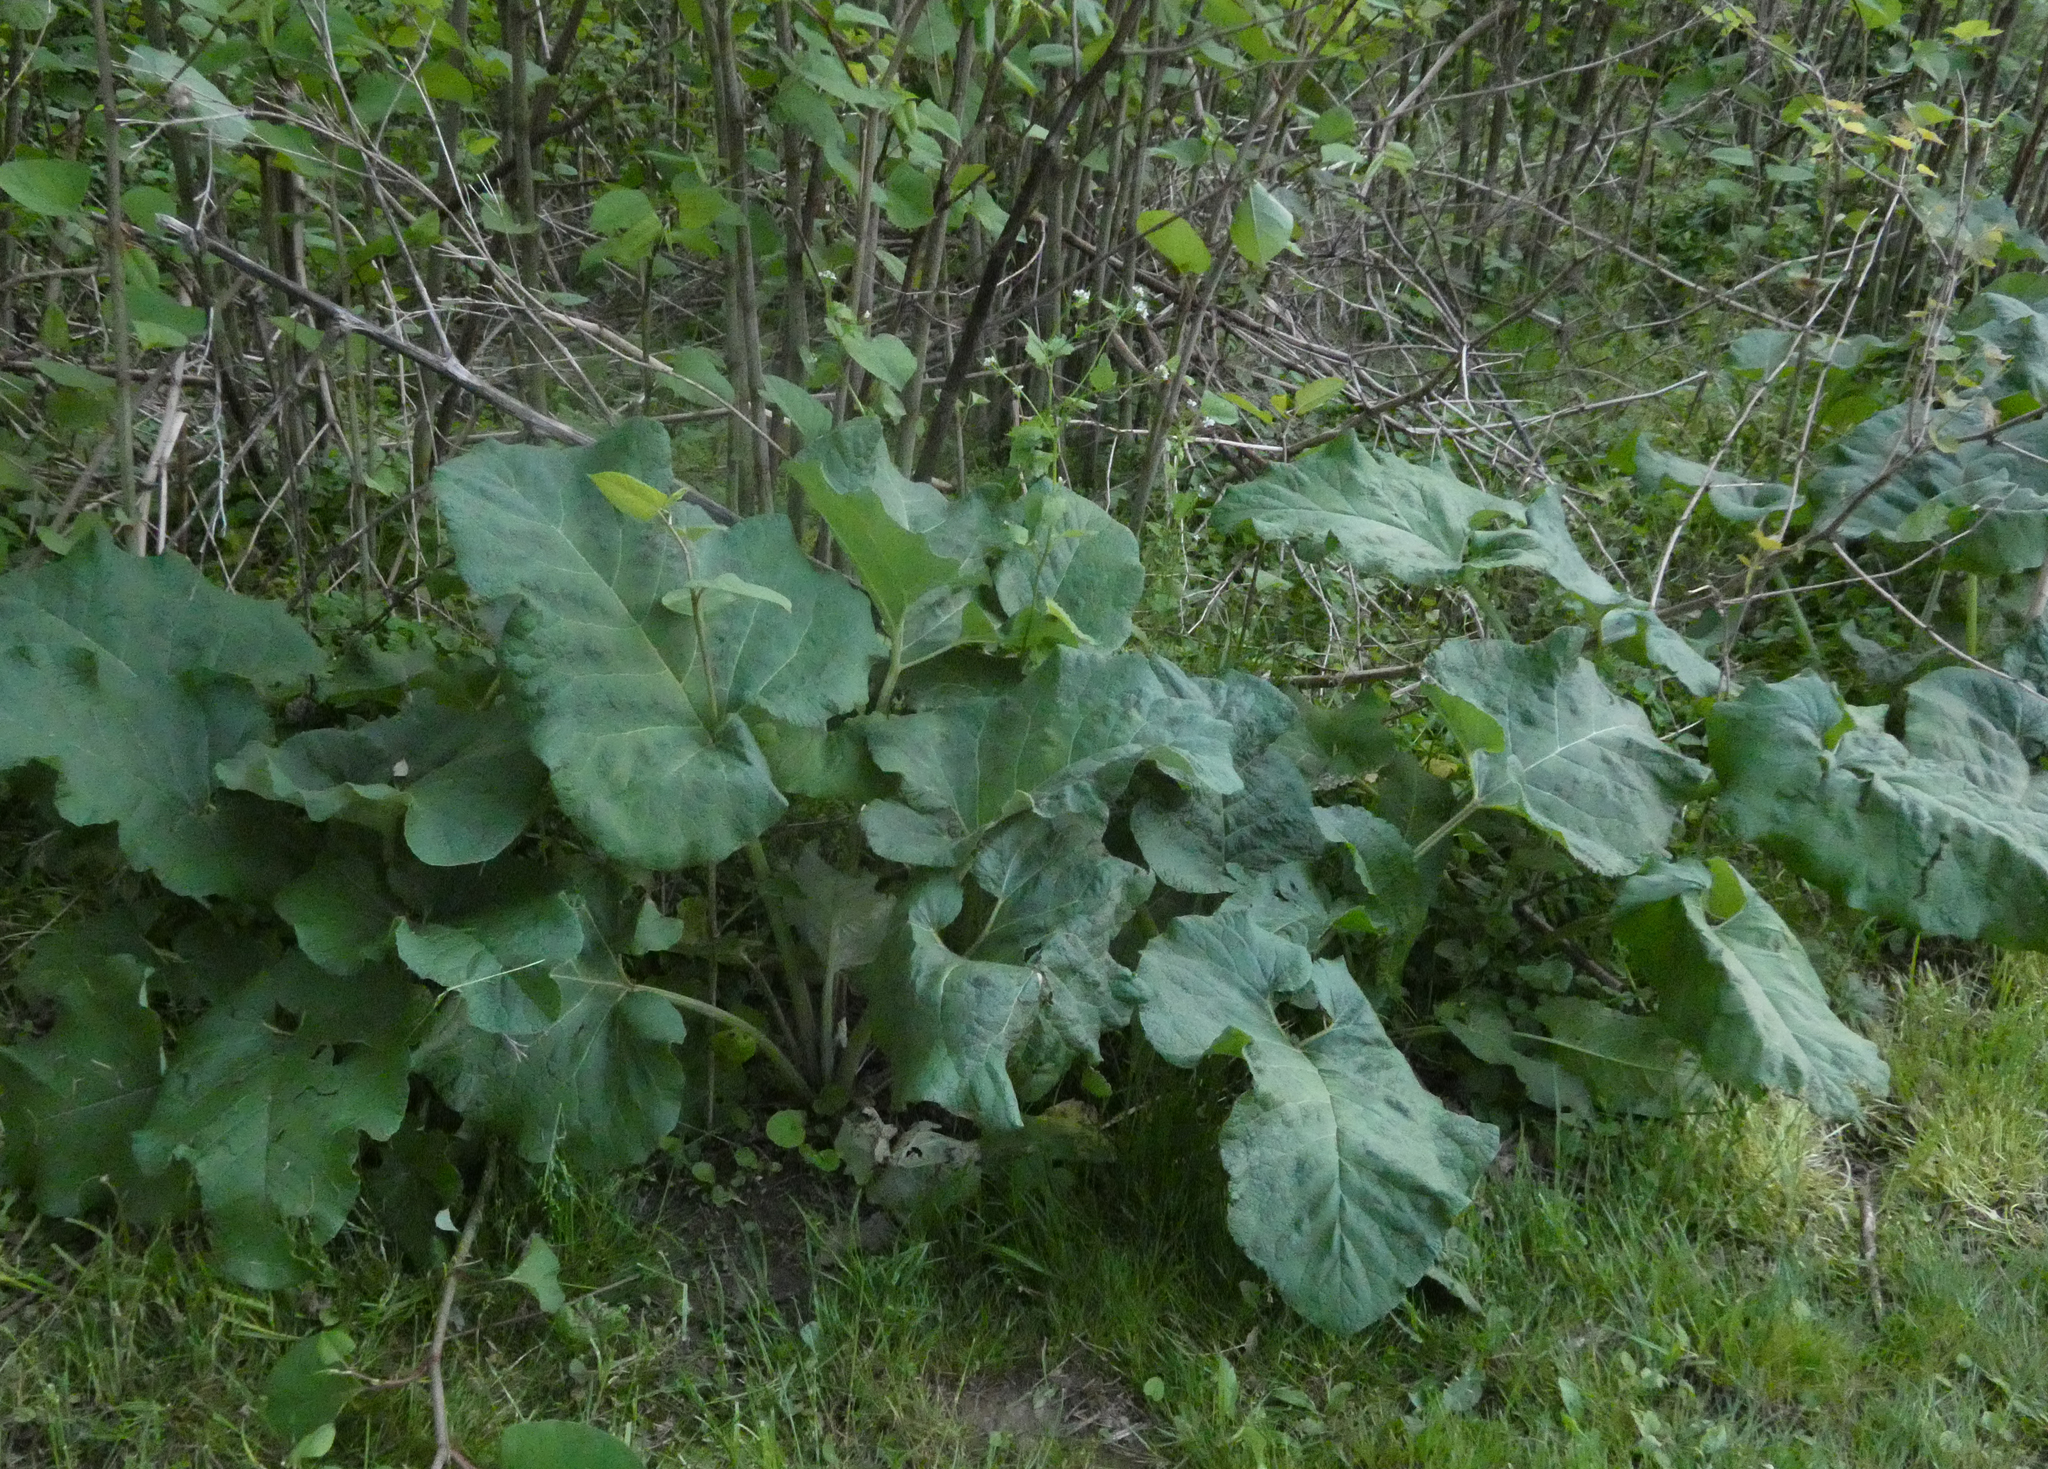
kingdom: Plantae
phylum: Tracheophyta
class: Magnoliopsida
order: Asterales
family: Asteraceae
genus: Arctium
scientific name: Arctium
